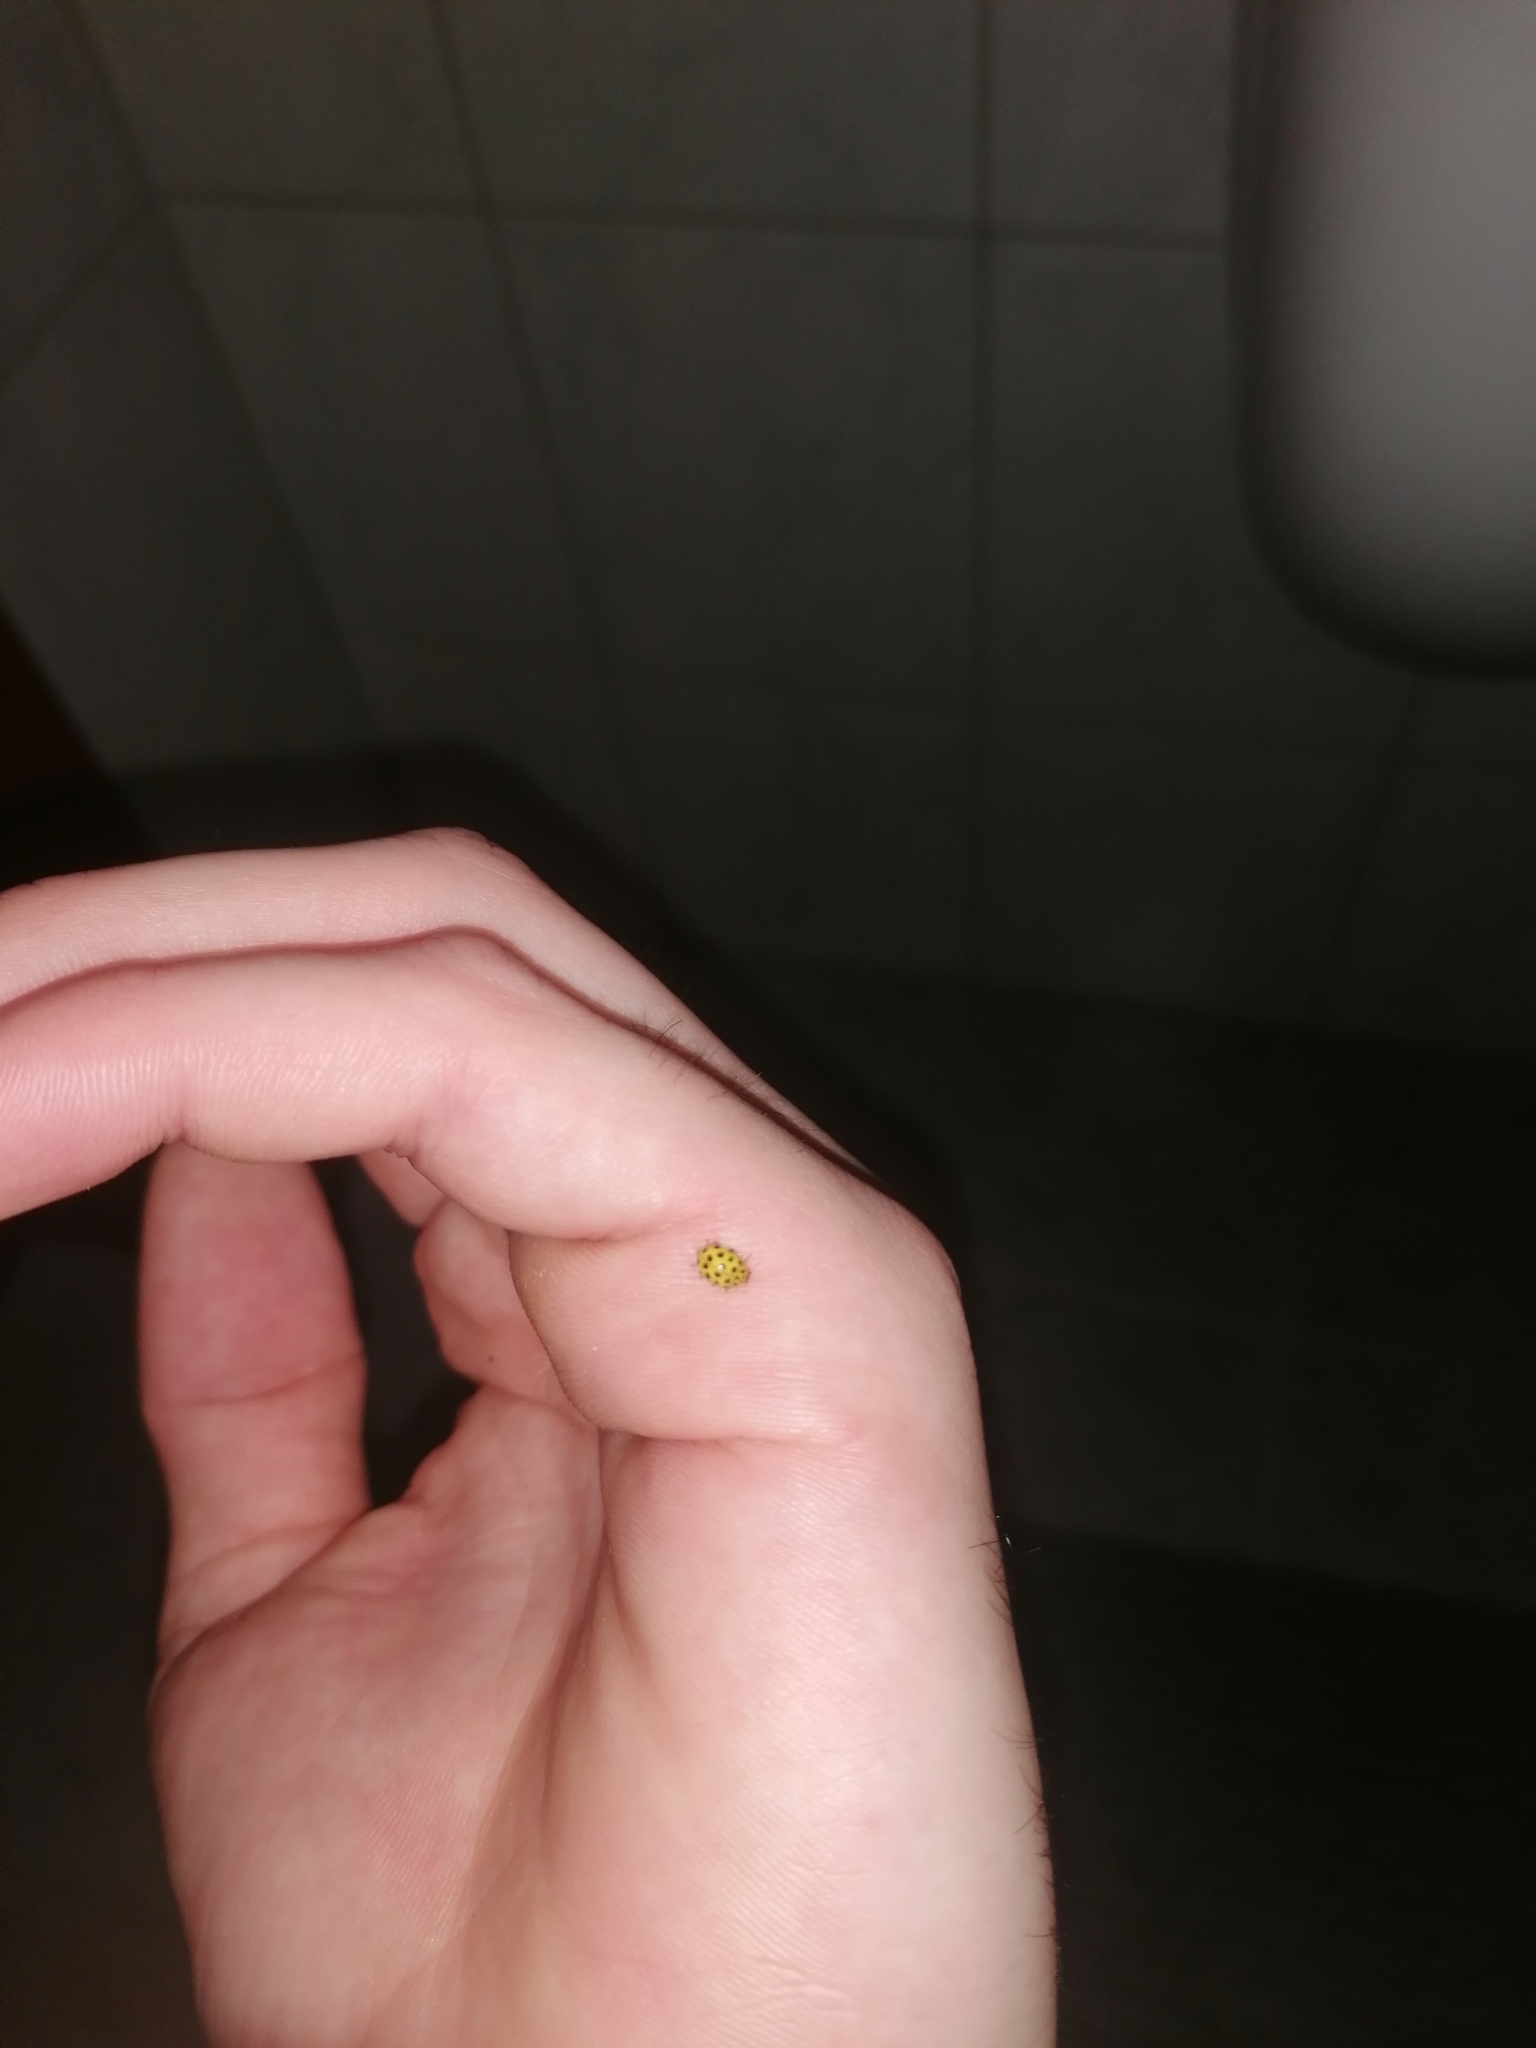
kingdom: Animalia
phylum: Arthropoda
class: Insecta
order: Coleoptera
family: Coccinellidae
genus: Psyllobora
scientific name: Psyllobora vigintiduopunctata
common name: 22-spot ladybird
